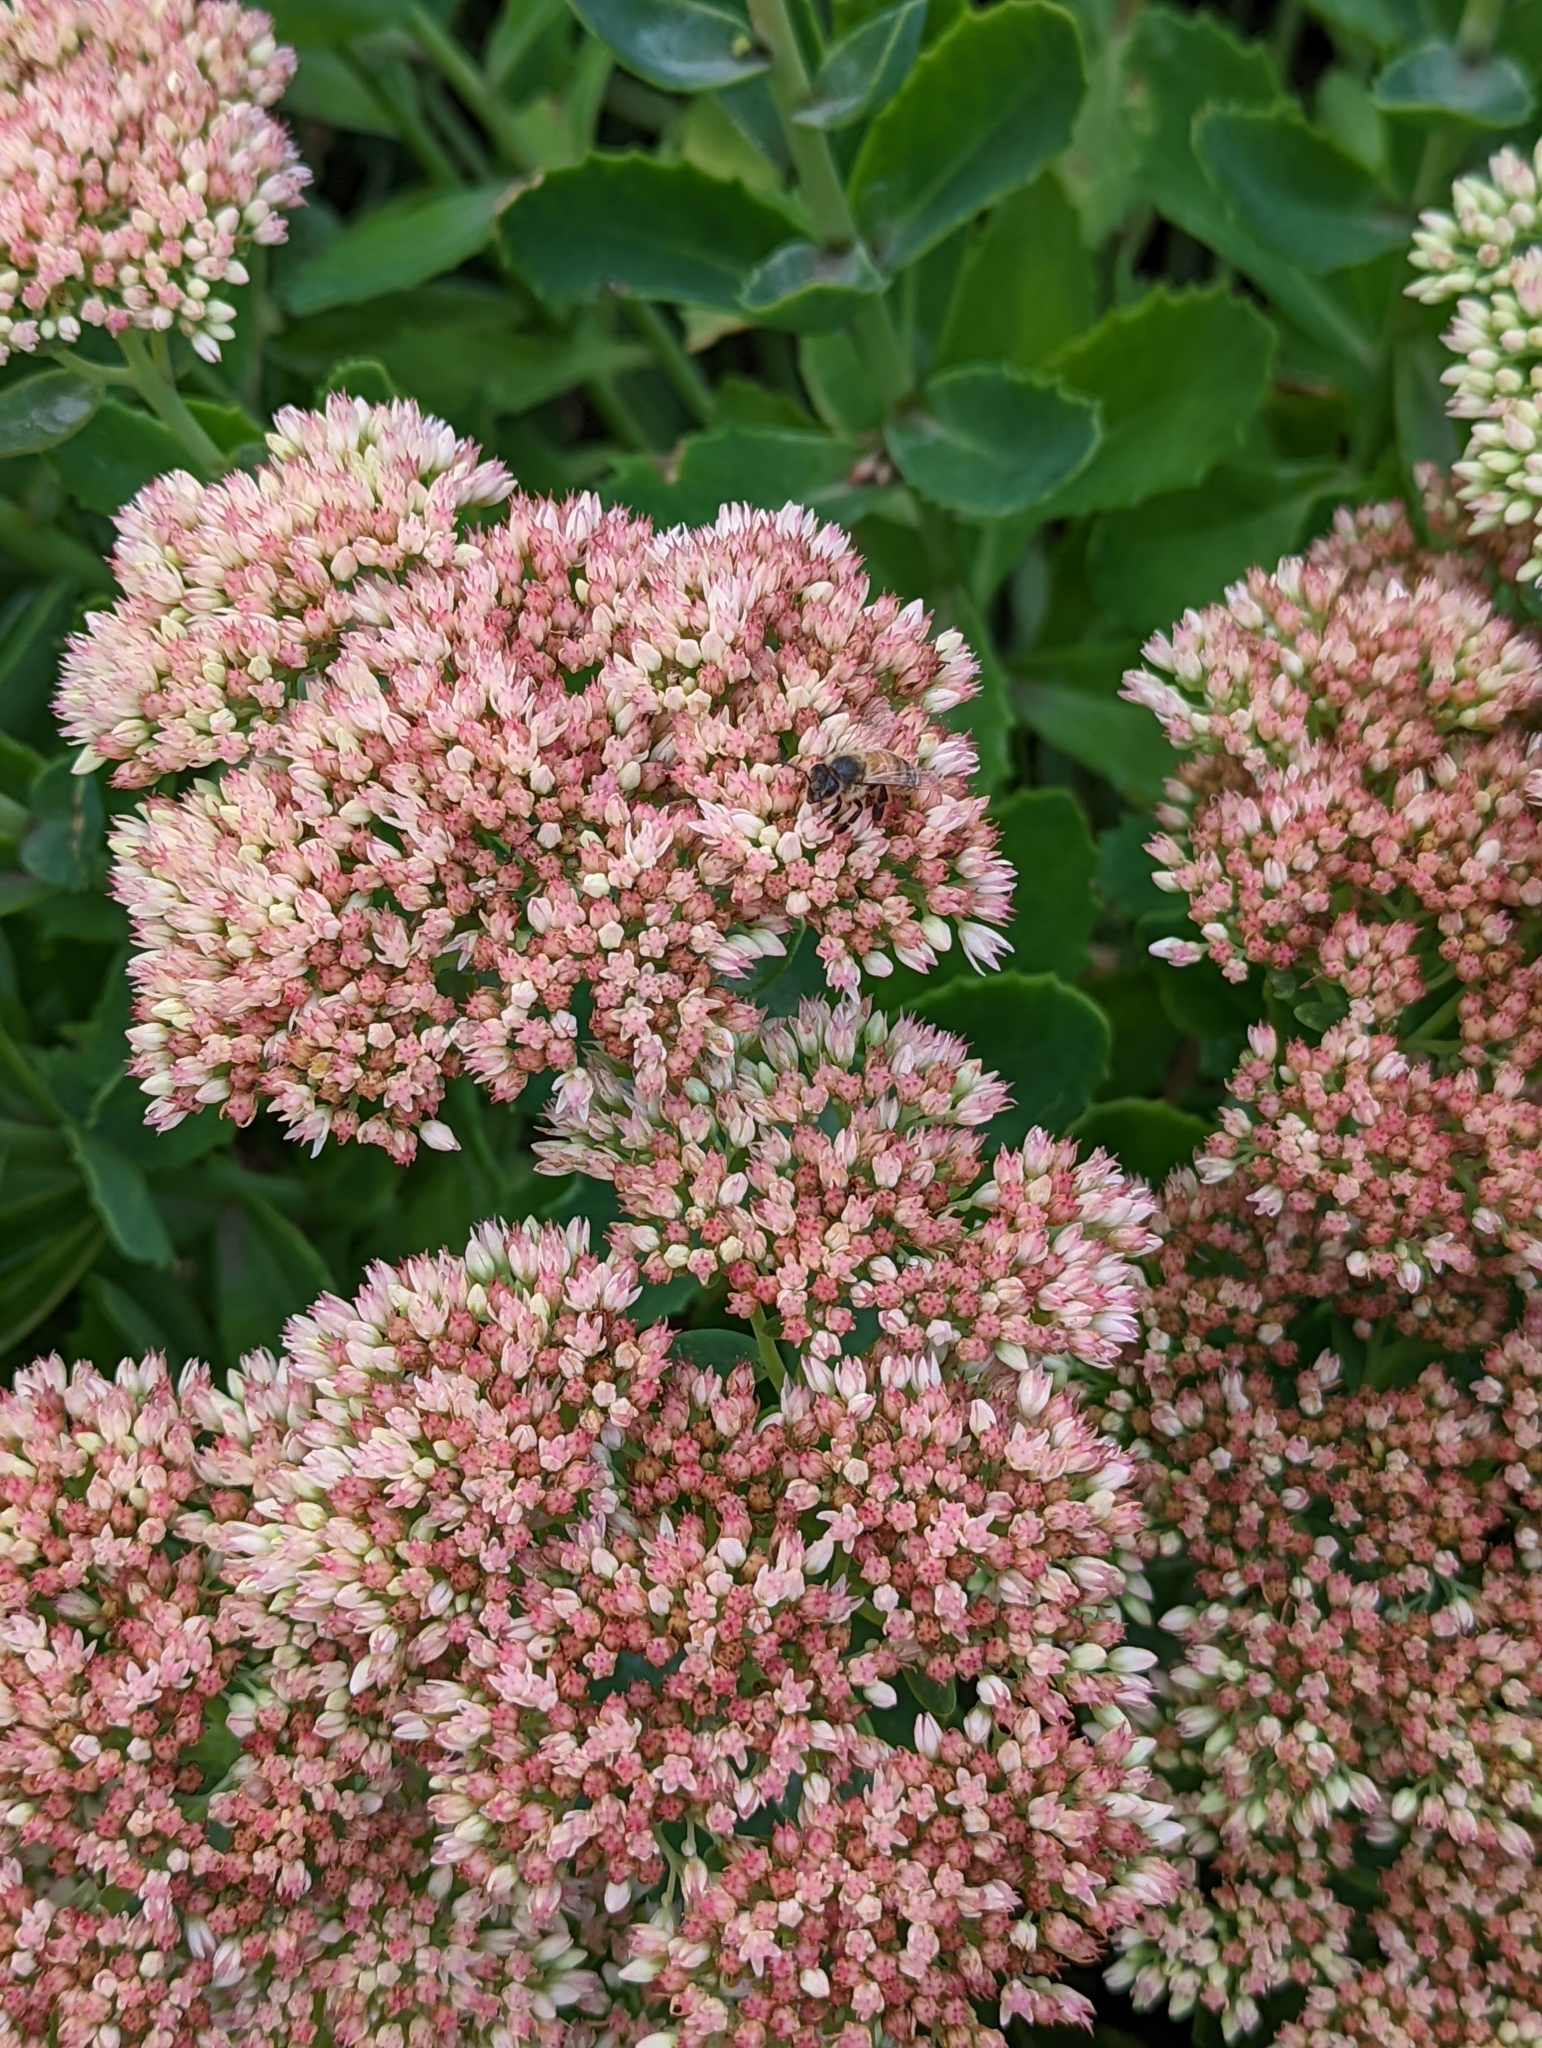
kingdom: Animalia
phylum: Arthropoda
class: Insecta
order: Hymenoptera
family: Apidae
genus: Apis
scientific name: Apis mellifera
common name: Honey bee
